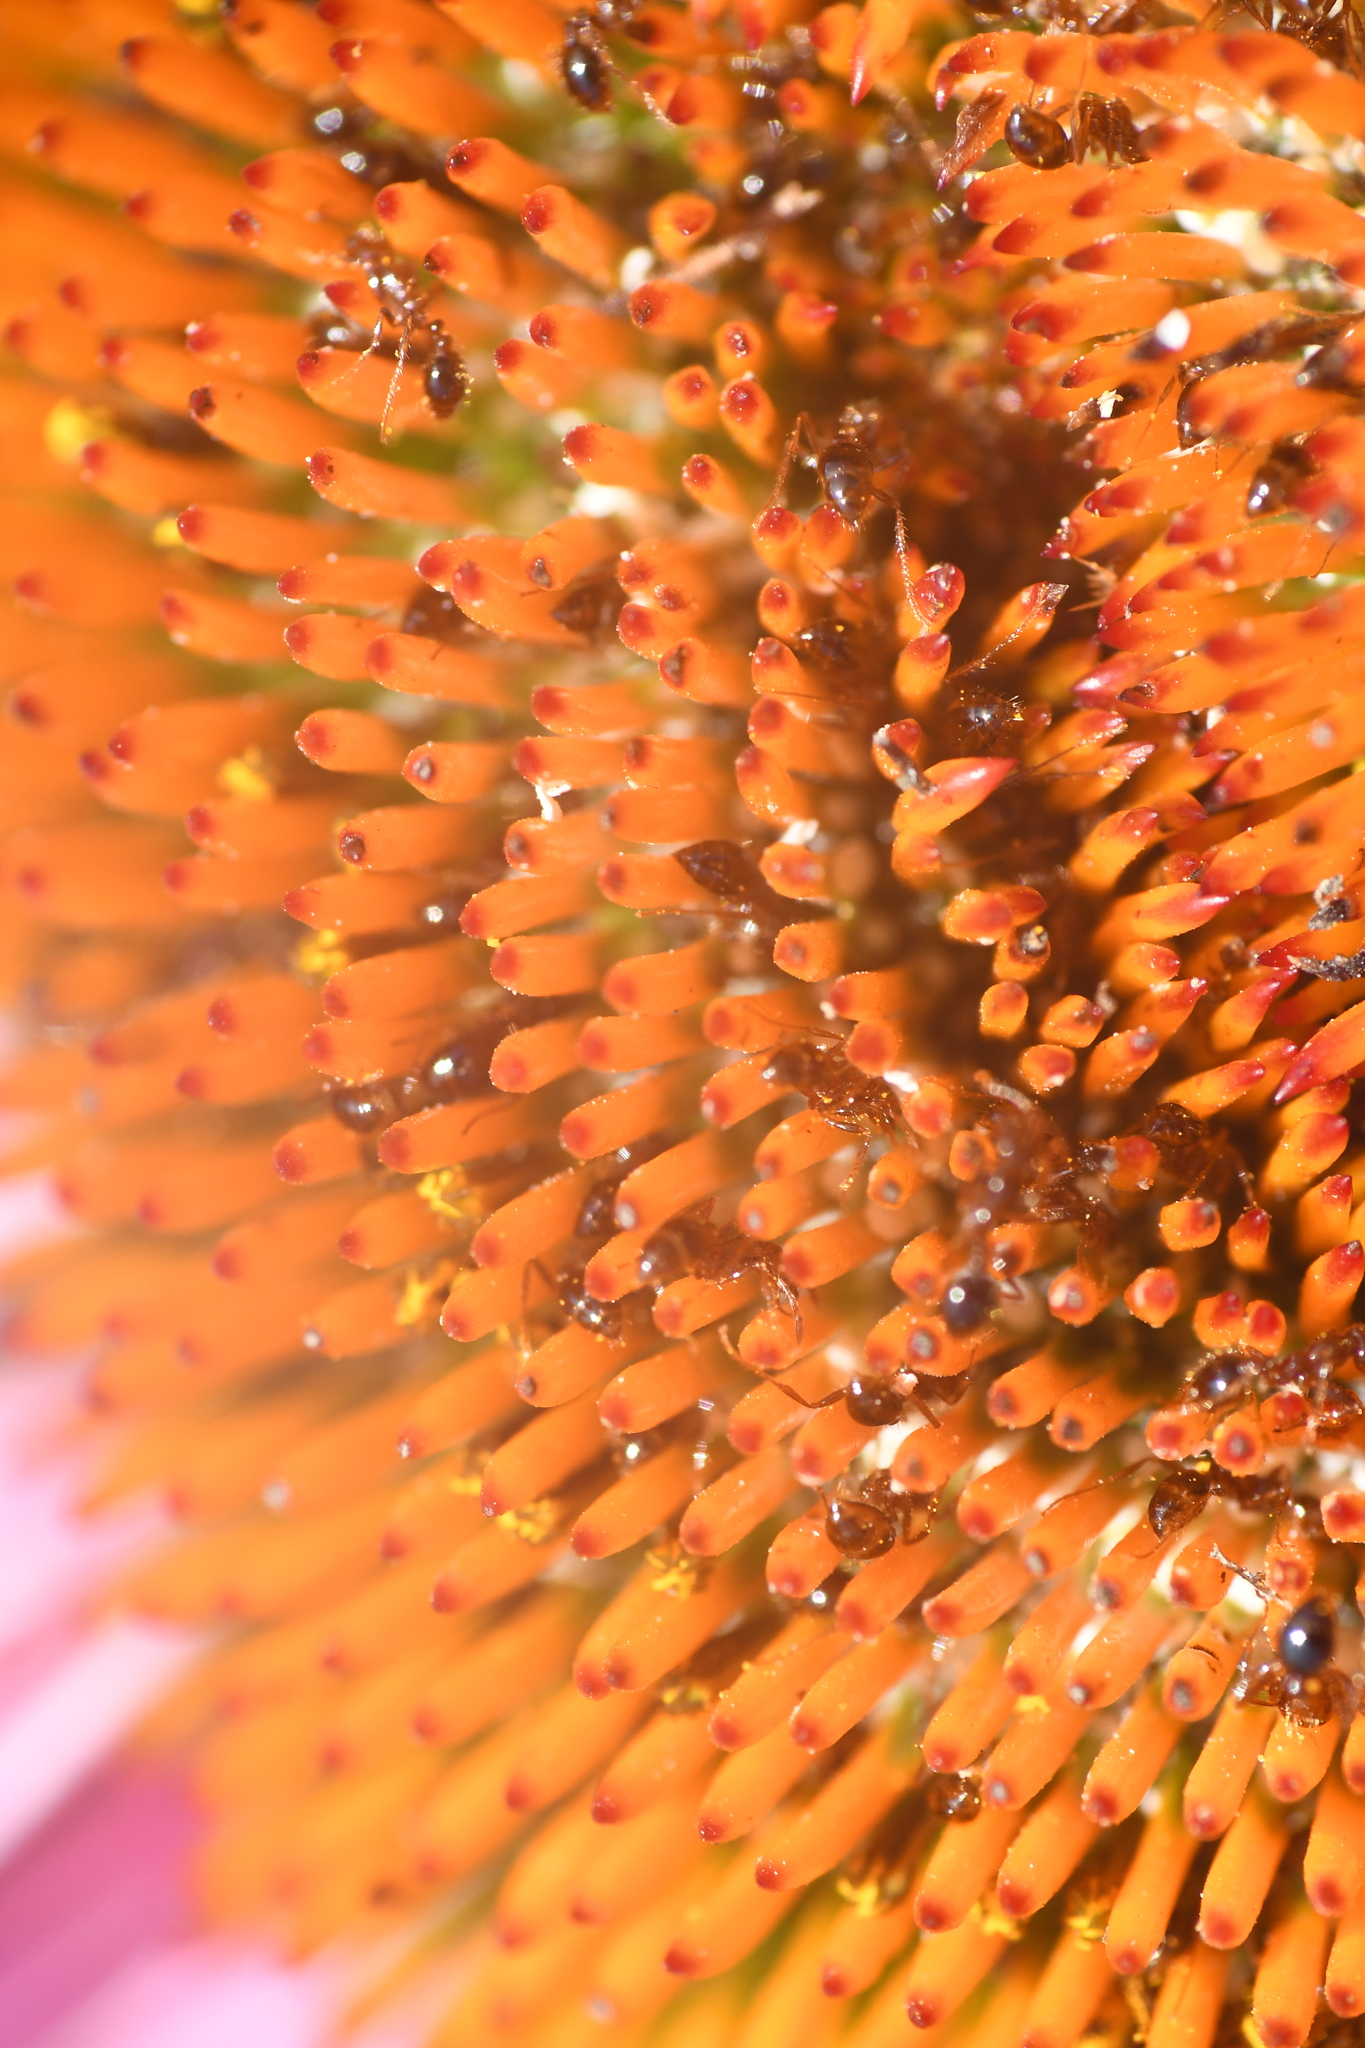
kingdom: Animalia
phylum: Arthropoda
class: Insecta
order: Hymenoptera
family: Formicidae
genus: Solenopsis
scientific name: Solenopsis invicta
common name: Red imported fire ant
